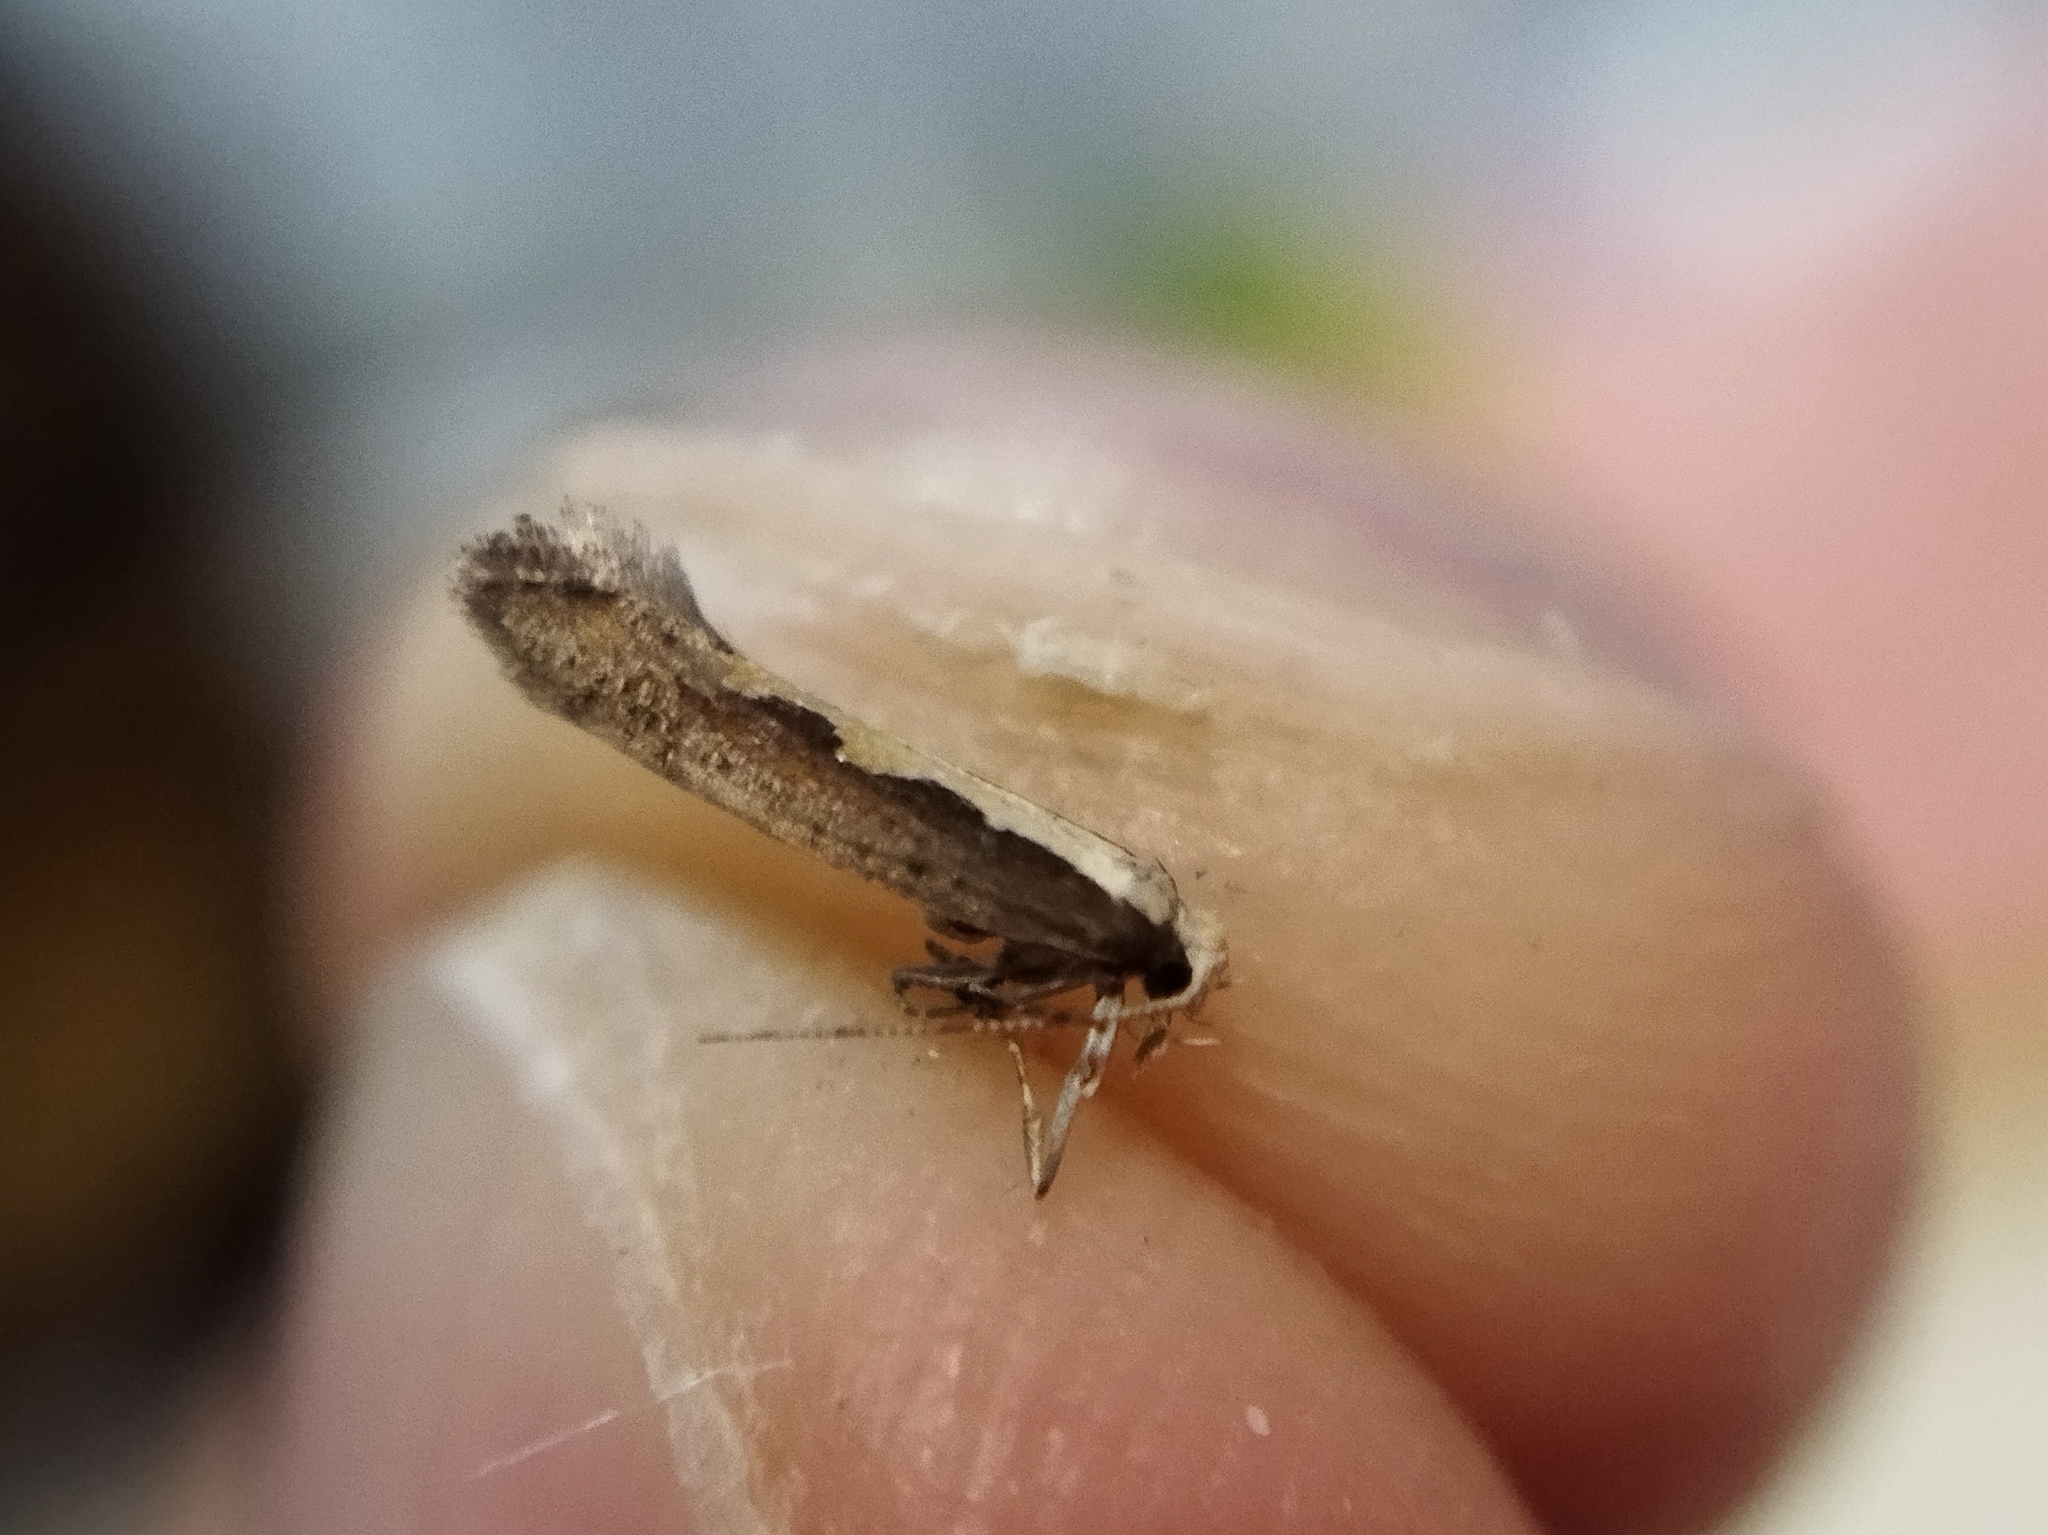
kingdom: Animalia
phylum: Arthropoda
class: Insecta
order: Lepidoptera
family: Plutellidae
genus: Plutella
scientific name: Plutella xylostella
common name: Diamond-back moth
